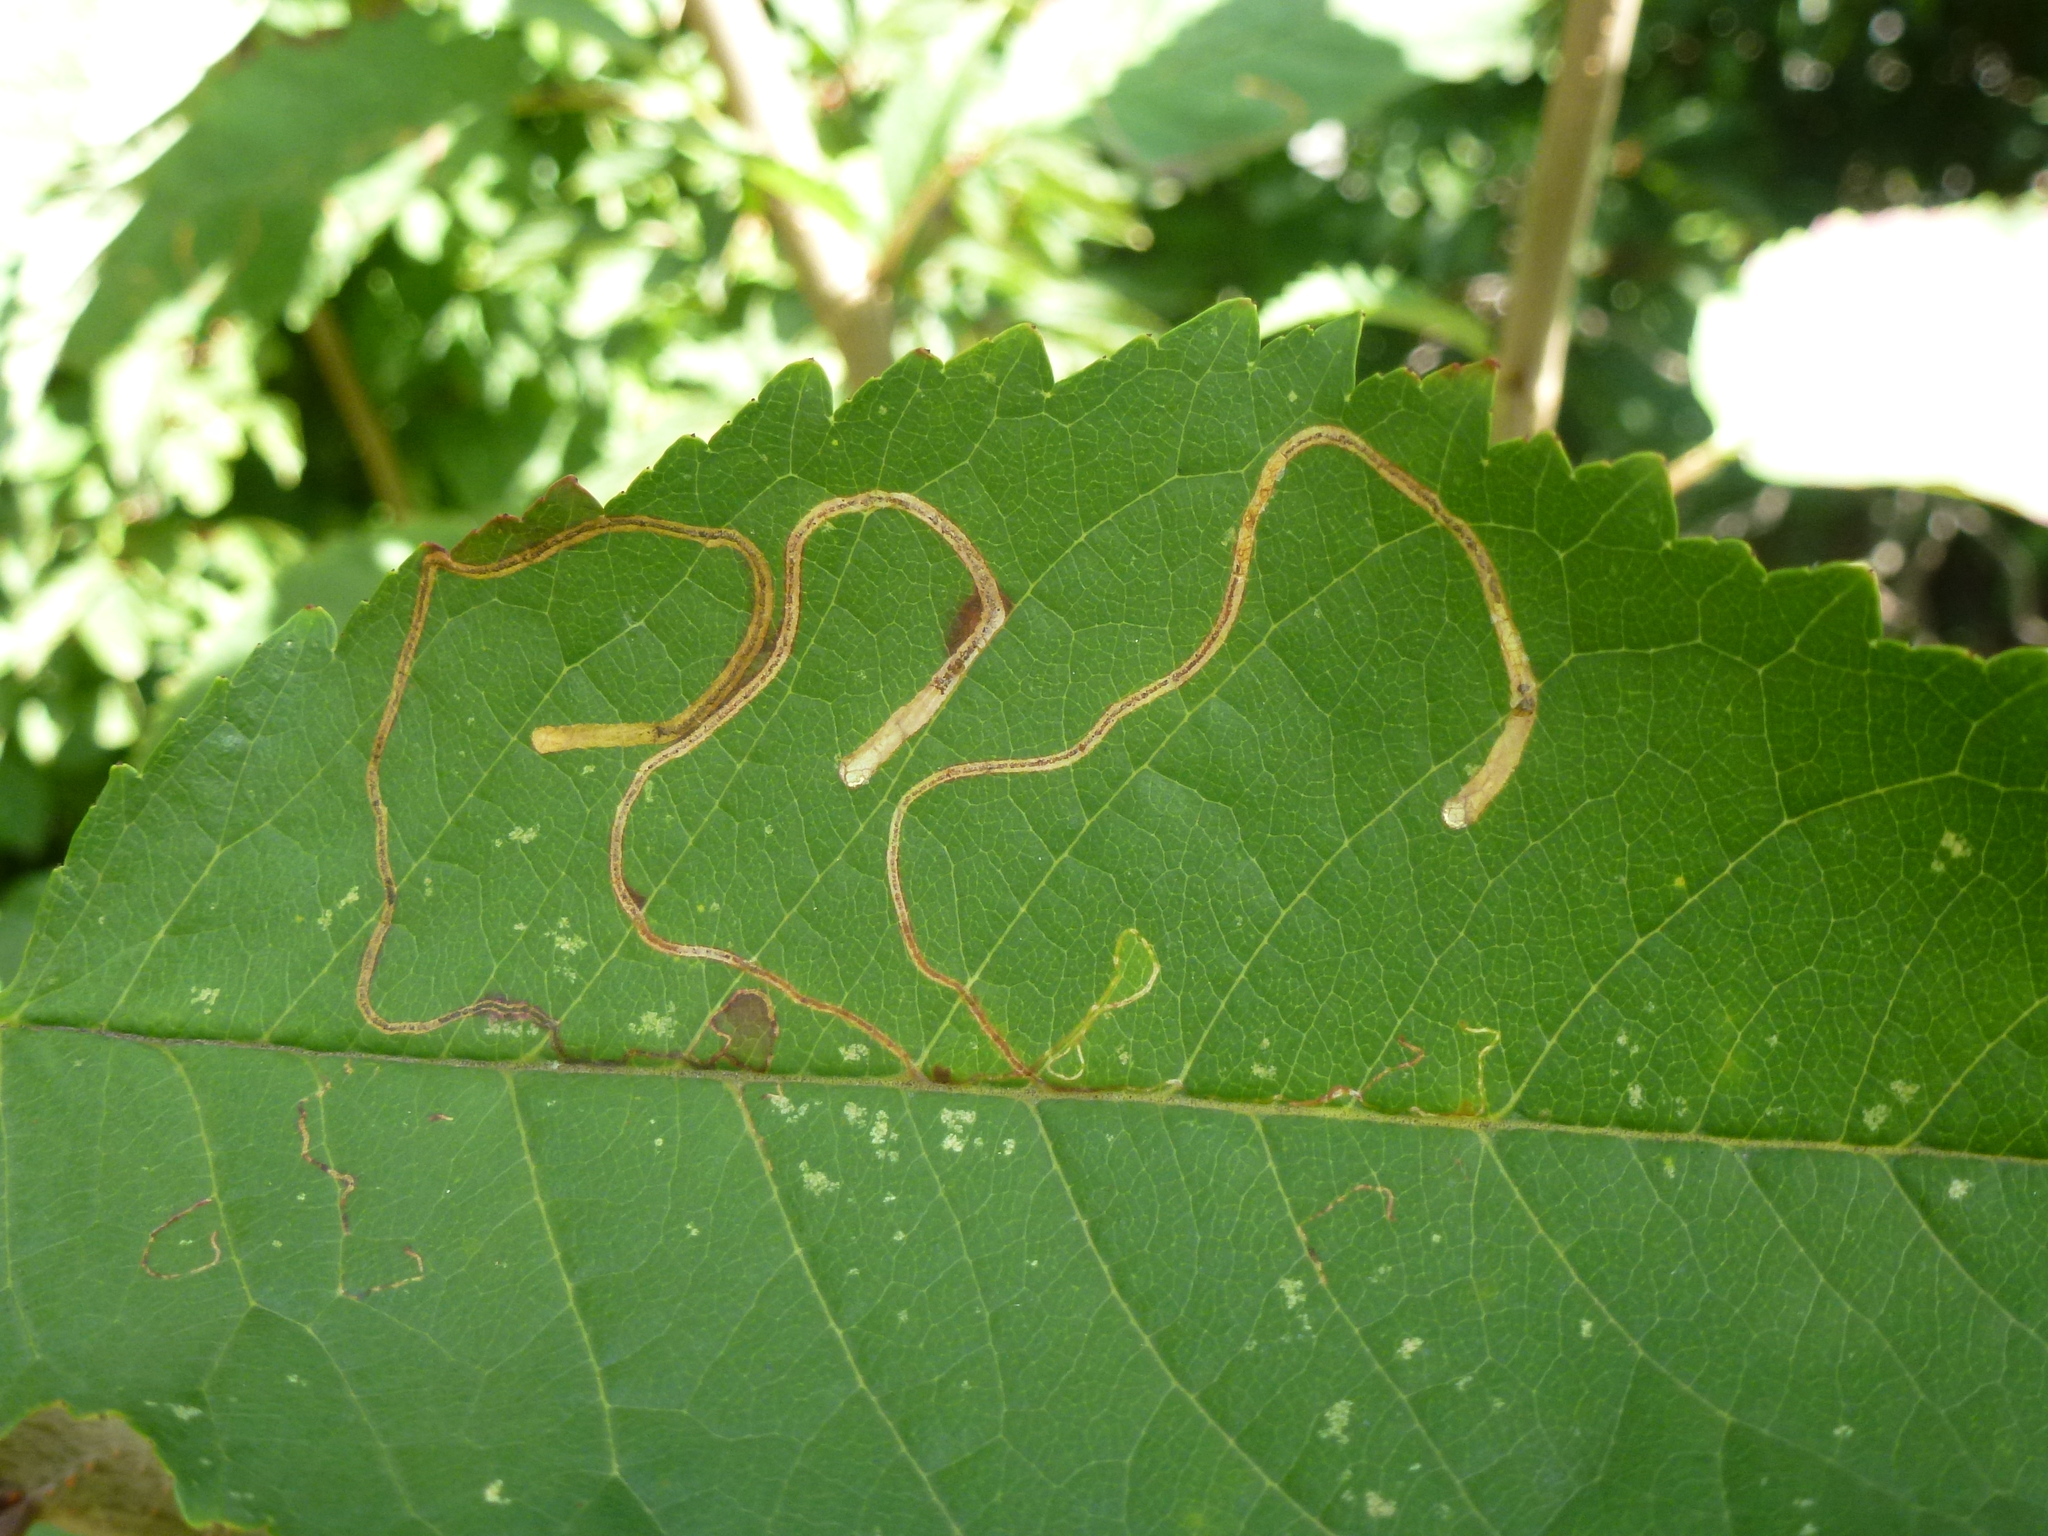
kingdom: Animalia
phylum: Arthropoda
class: Insecta
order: Lepidoptera
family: Lyonetiidae
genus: Lyonetia
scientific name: Lyonetia clerkella
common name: Apple leaf miner
